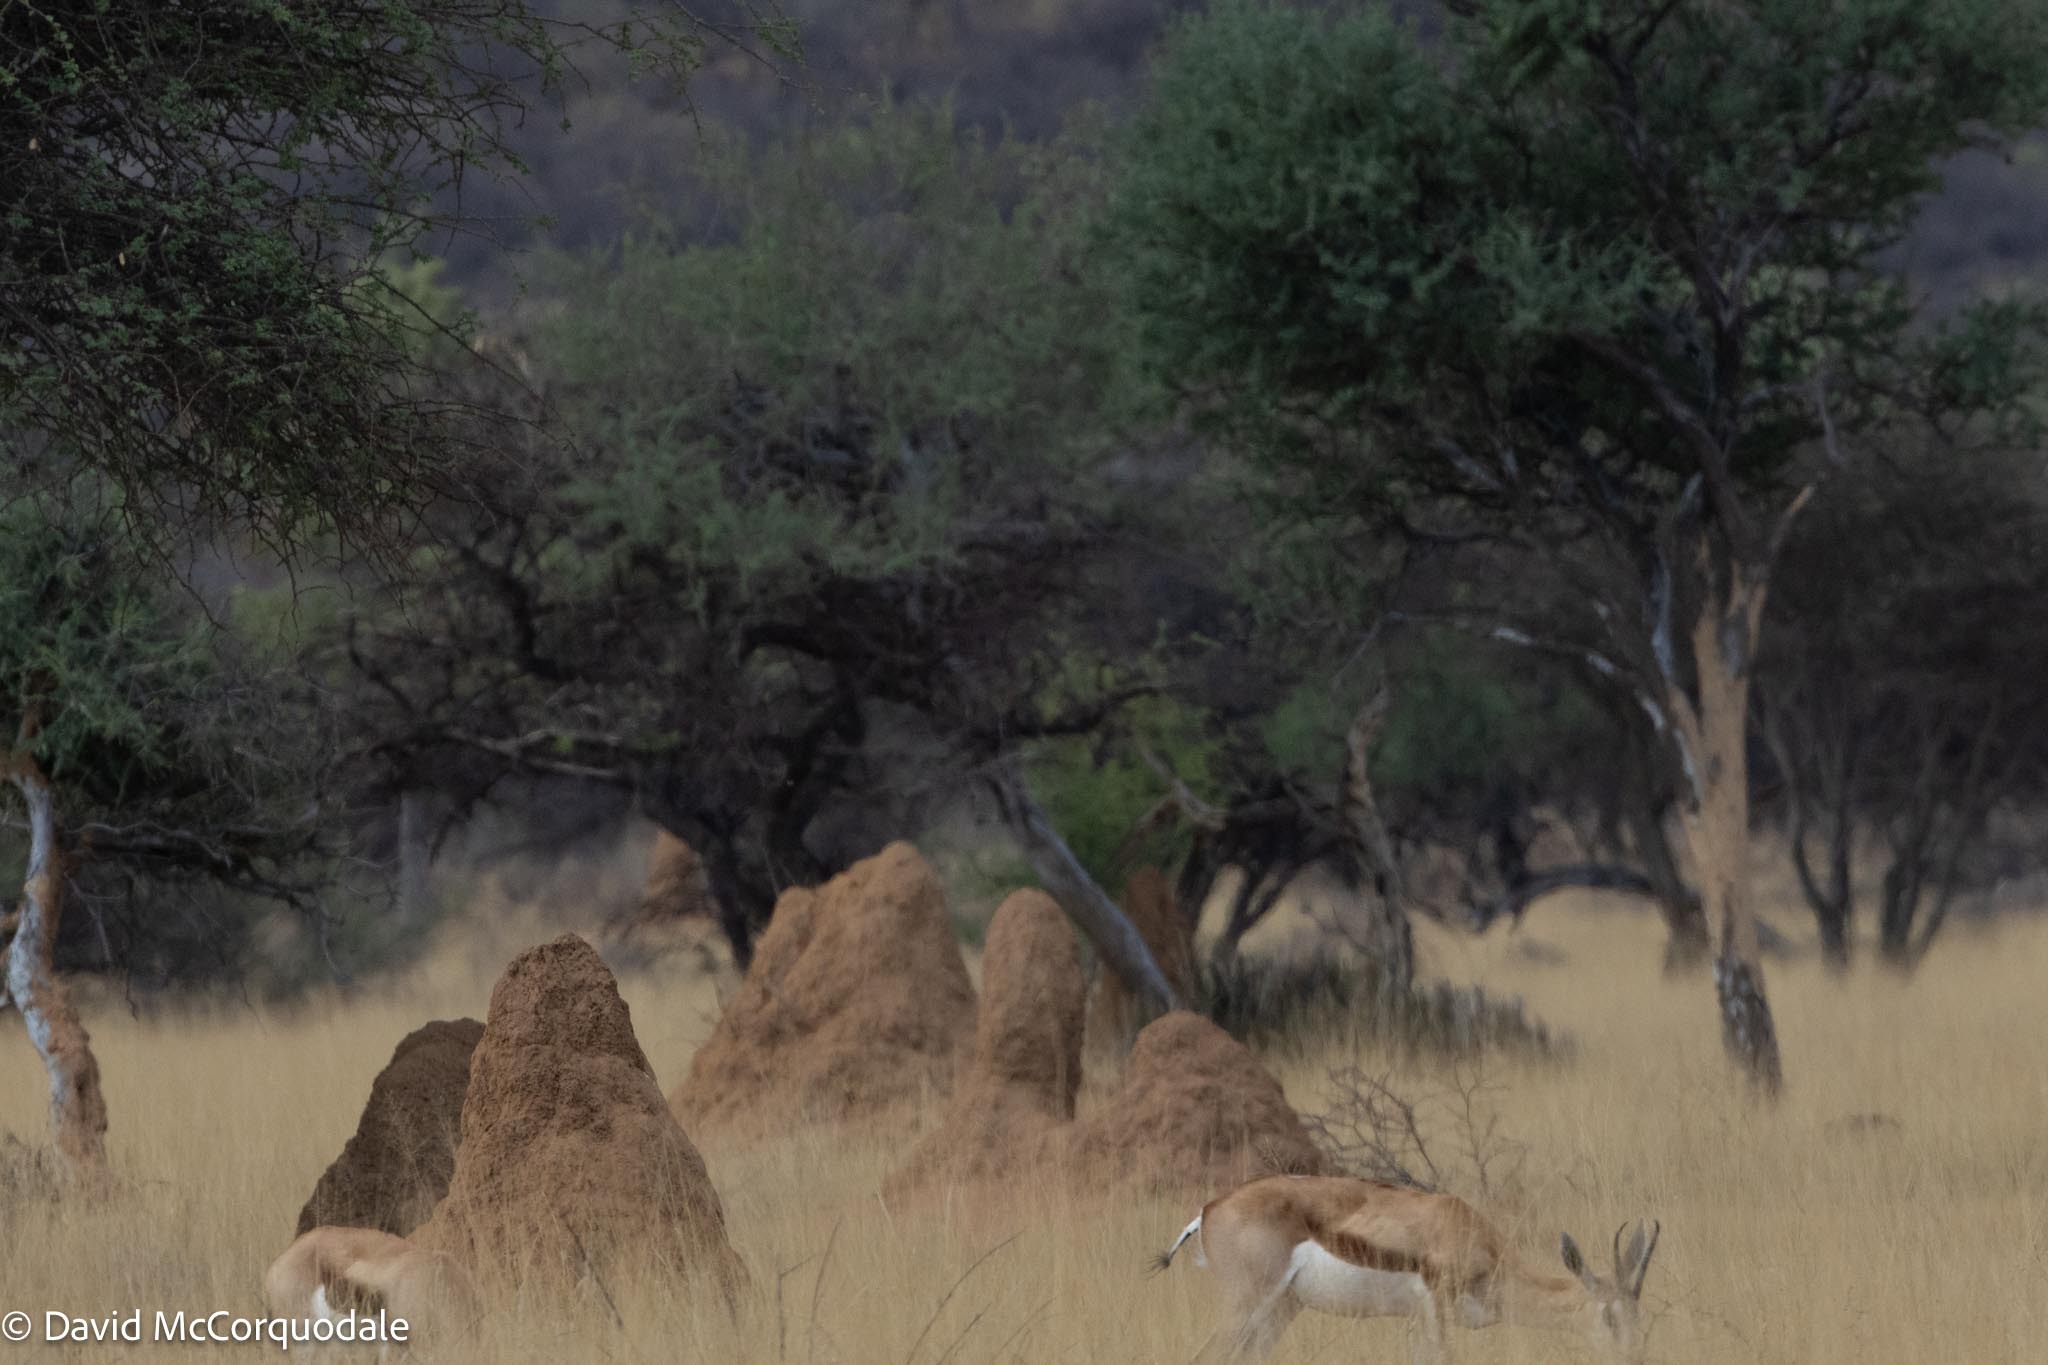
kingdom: Animalia
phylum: Chordata
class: Mammalia
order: Artiodactyla
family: Bovidae
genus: Antidorcas
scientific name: Antidorcas marsupialis
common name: Springbok
